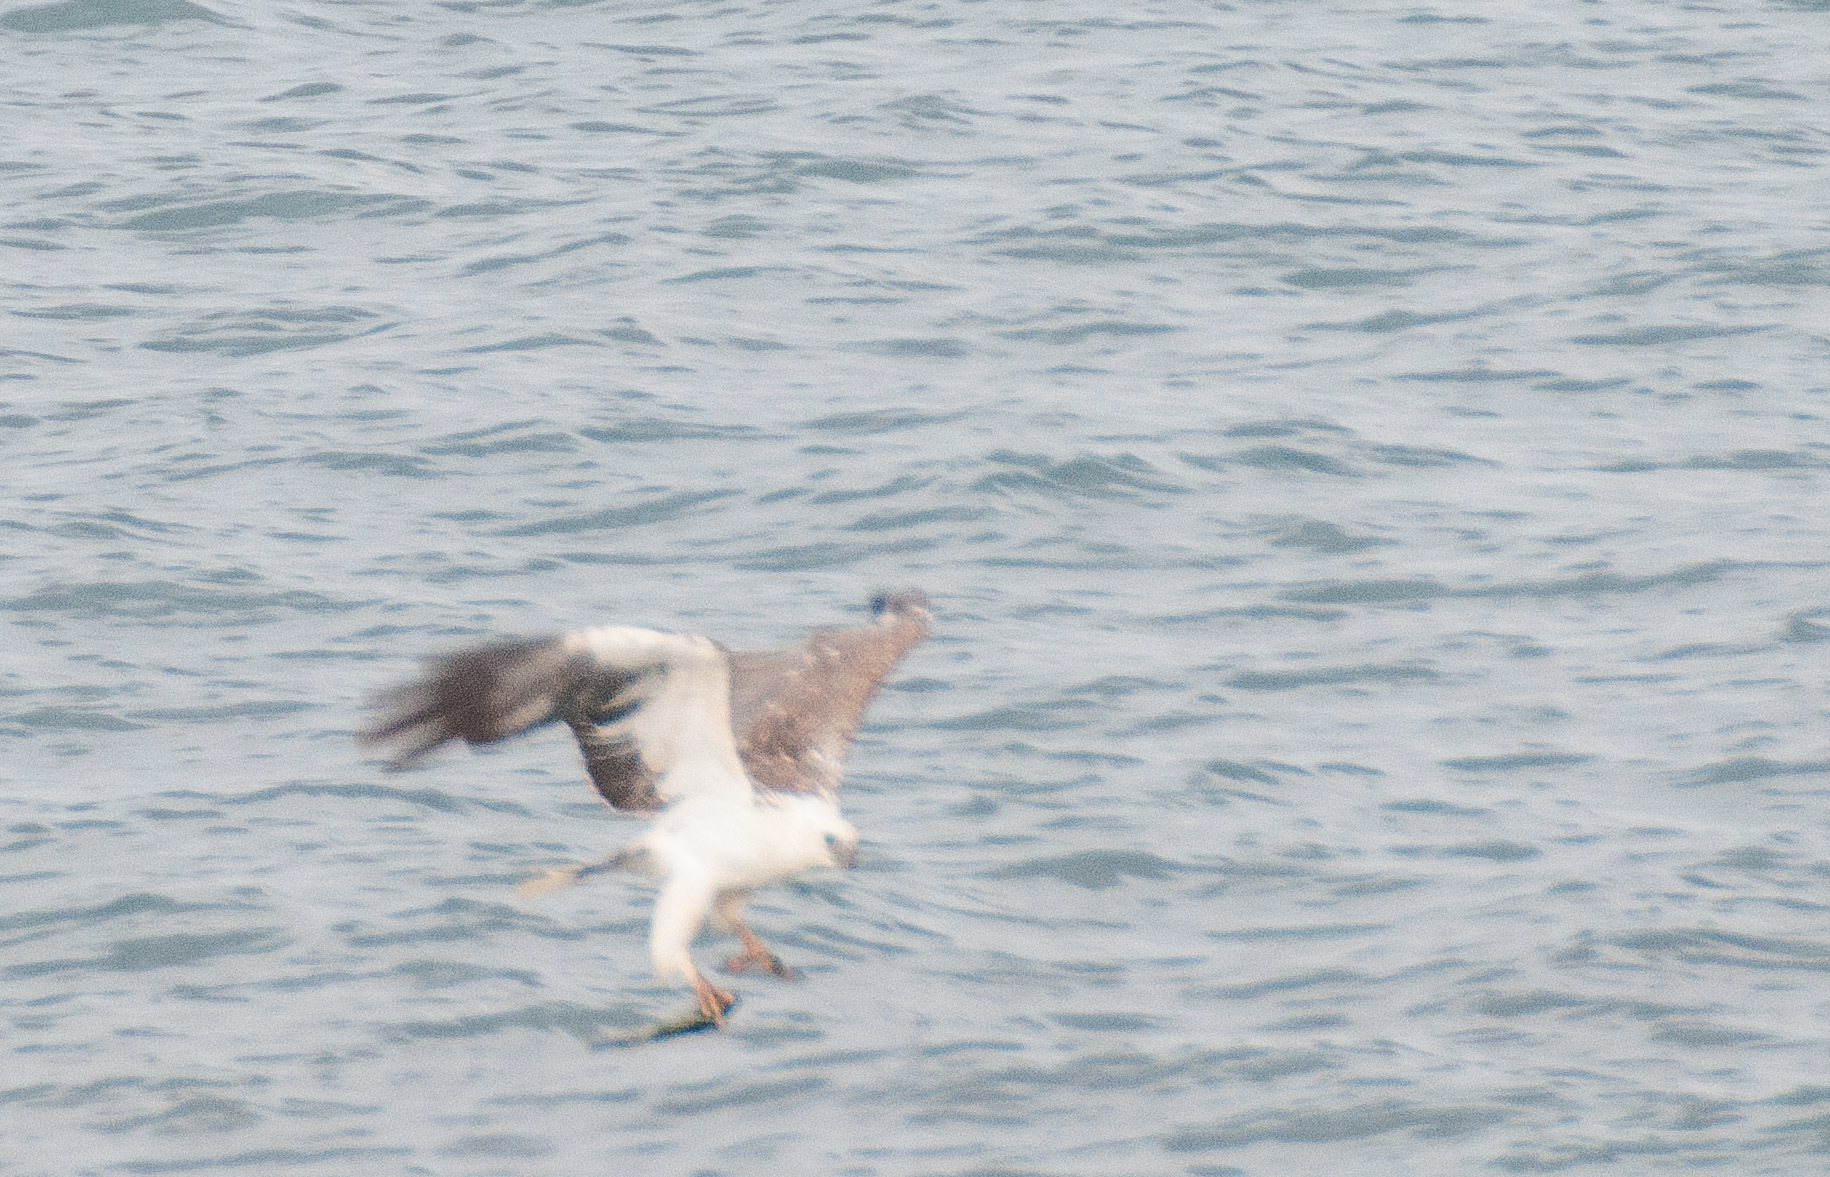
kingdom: Animalia
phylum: Chordata
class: Aves
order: Accipitriformes
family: Accipitridae
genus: Haliaeetus
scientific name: Haliaeetus leucogaster
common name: White-bellied sea eagle
